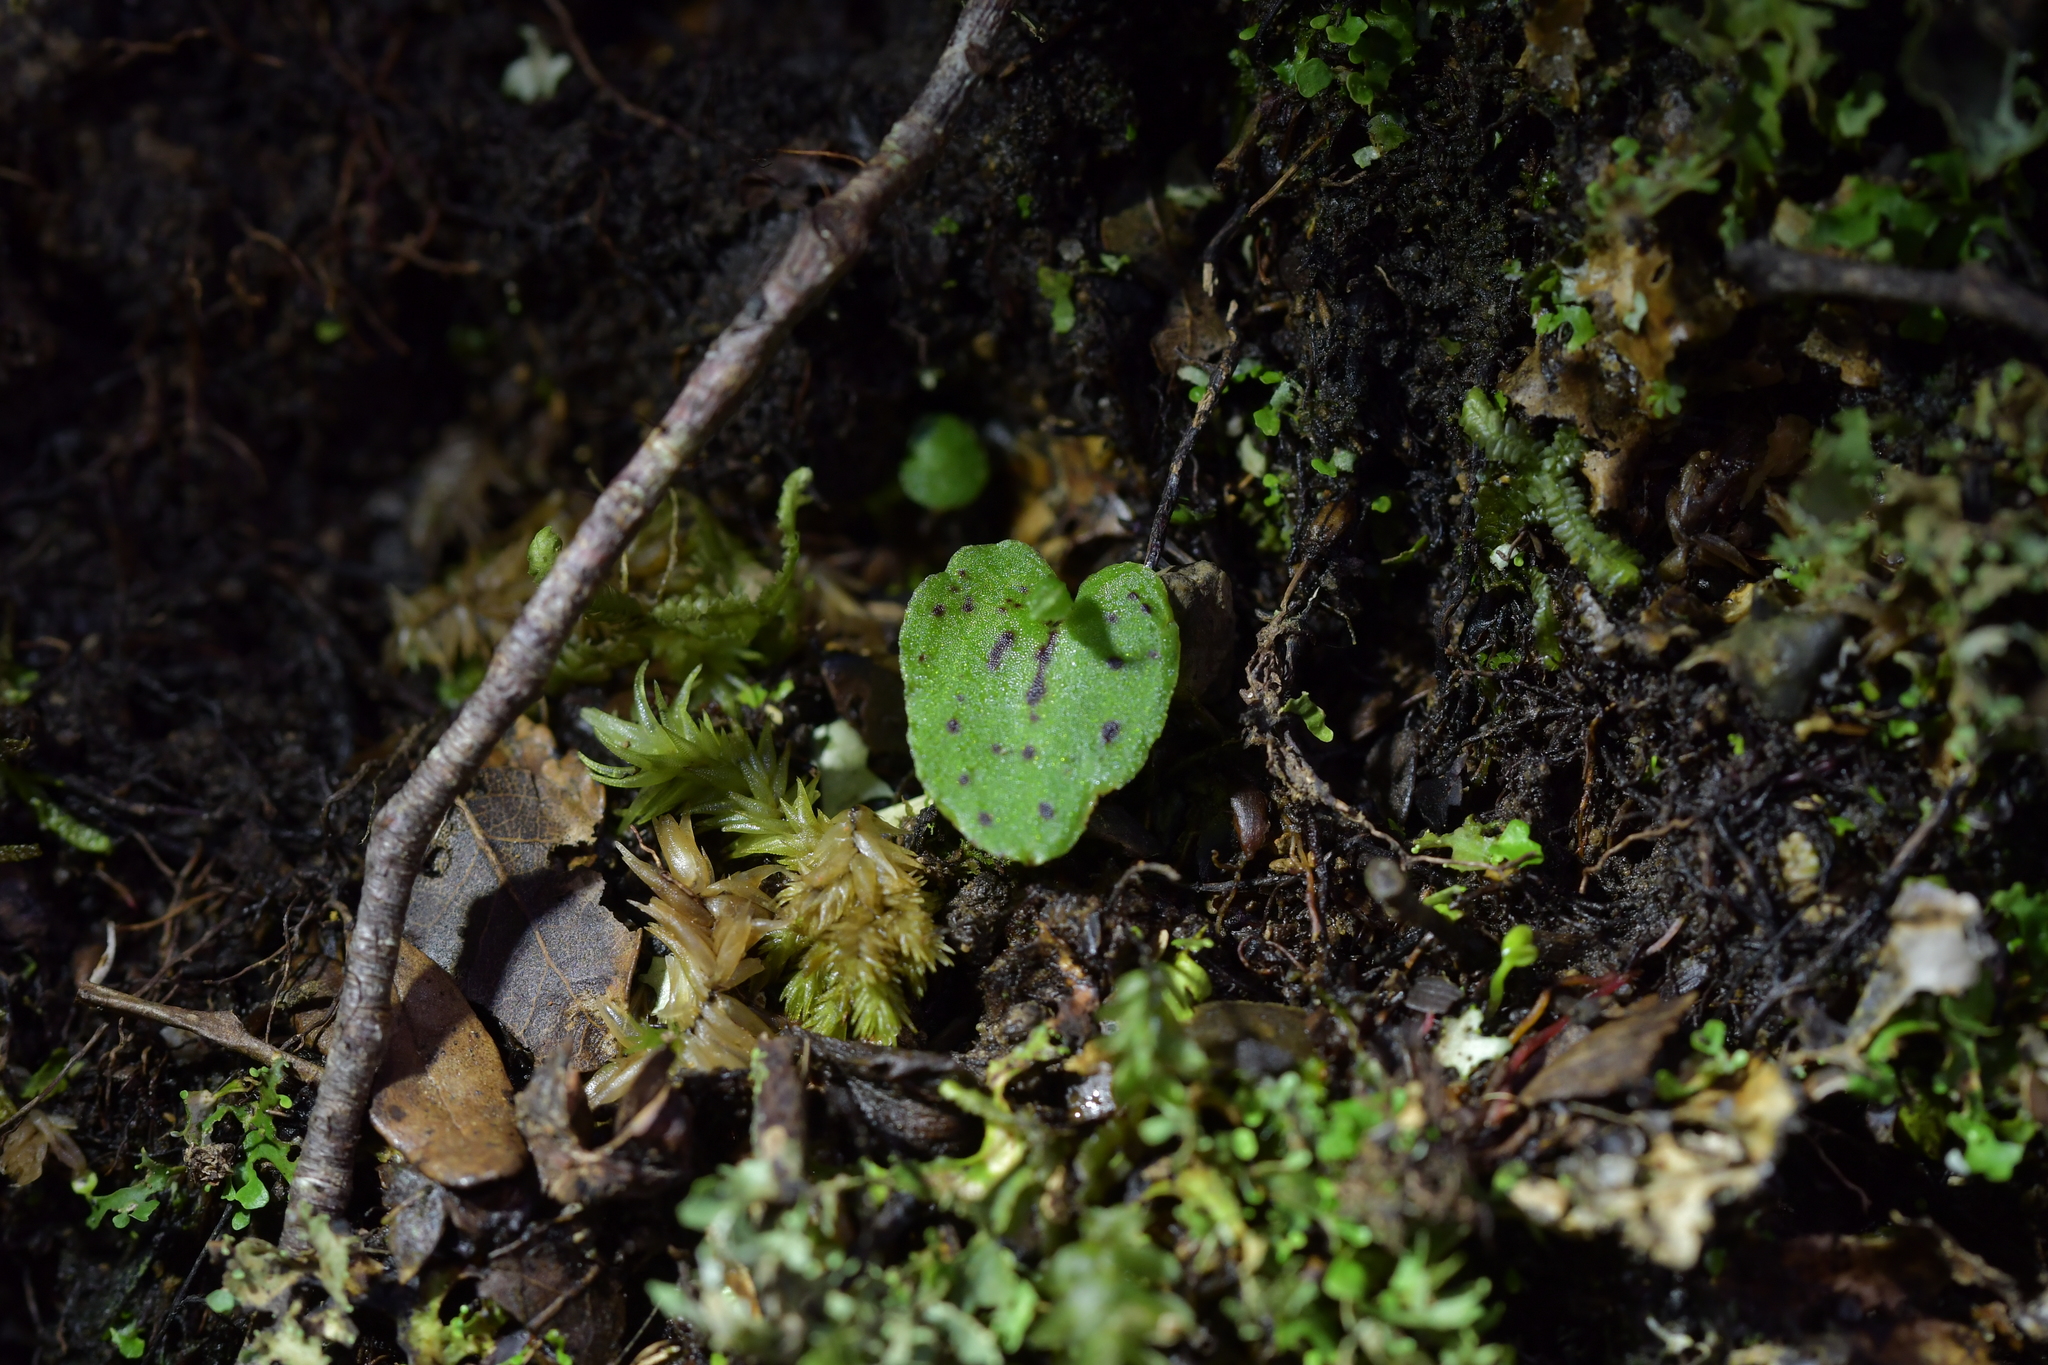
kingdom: Plantae
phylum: Tracheophyta
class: Liliopsida
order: Asparagales
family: Orchidaceae
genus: Corybas
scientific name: Corybas oblongus
